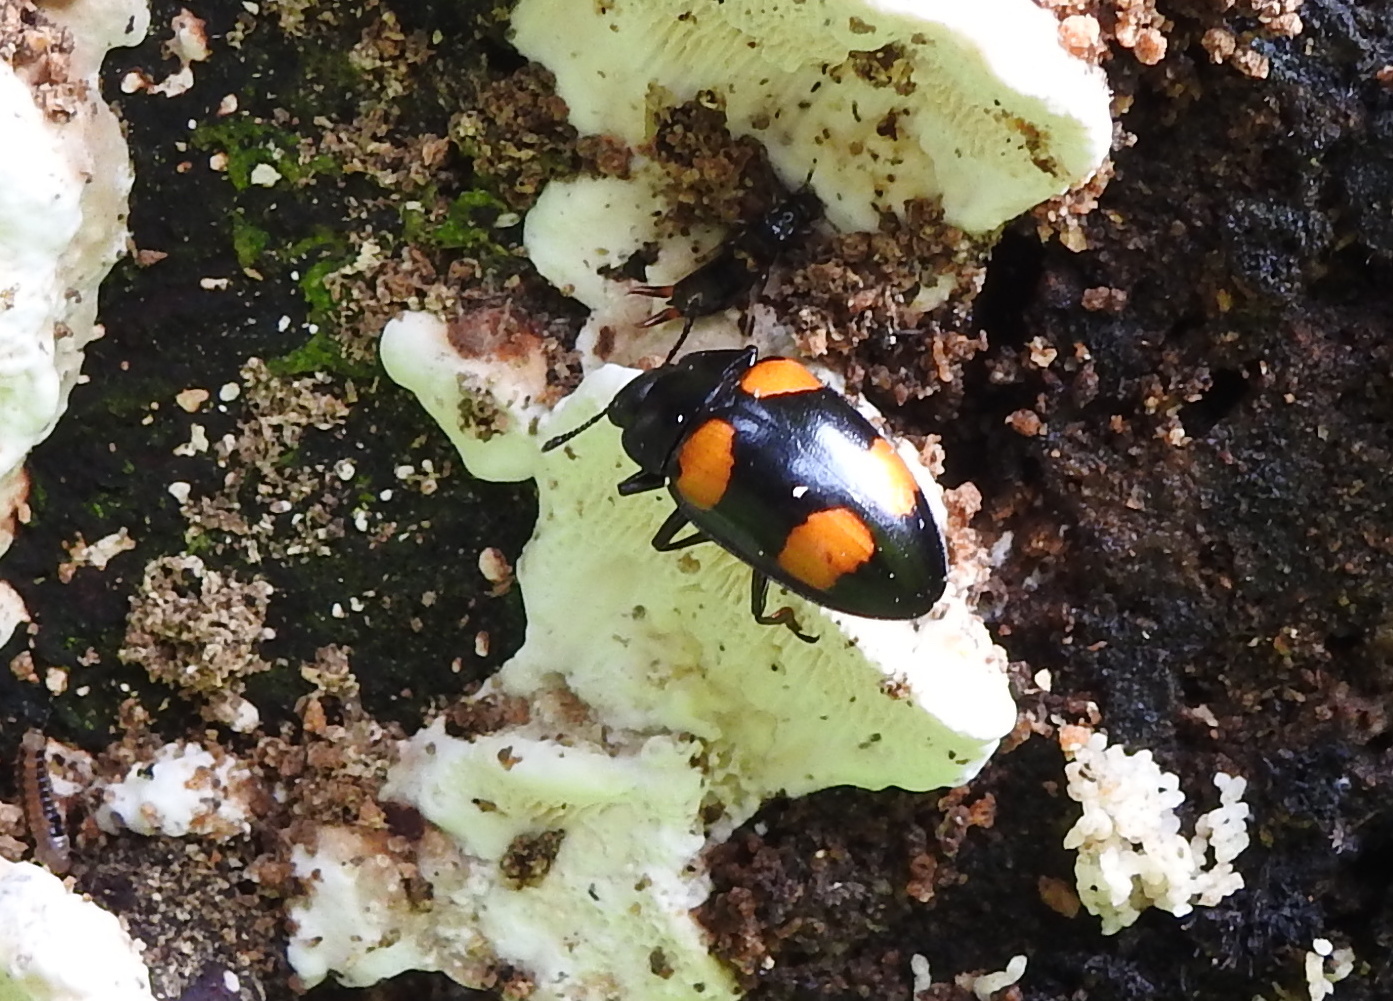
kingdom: Animalia
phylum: Arthropoda
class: Insecta
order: Coleoptera
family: Erotylidae
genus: Aulacocheilus
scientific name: Aulacocheilus
